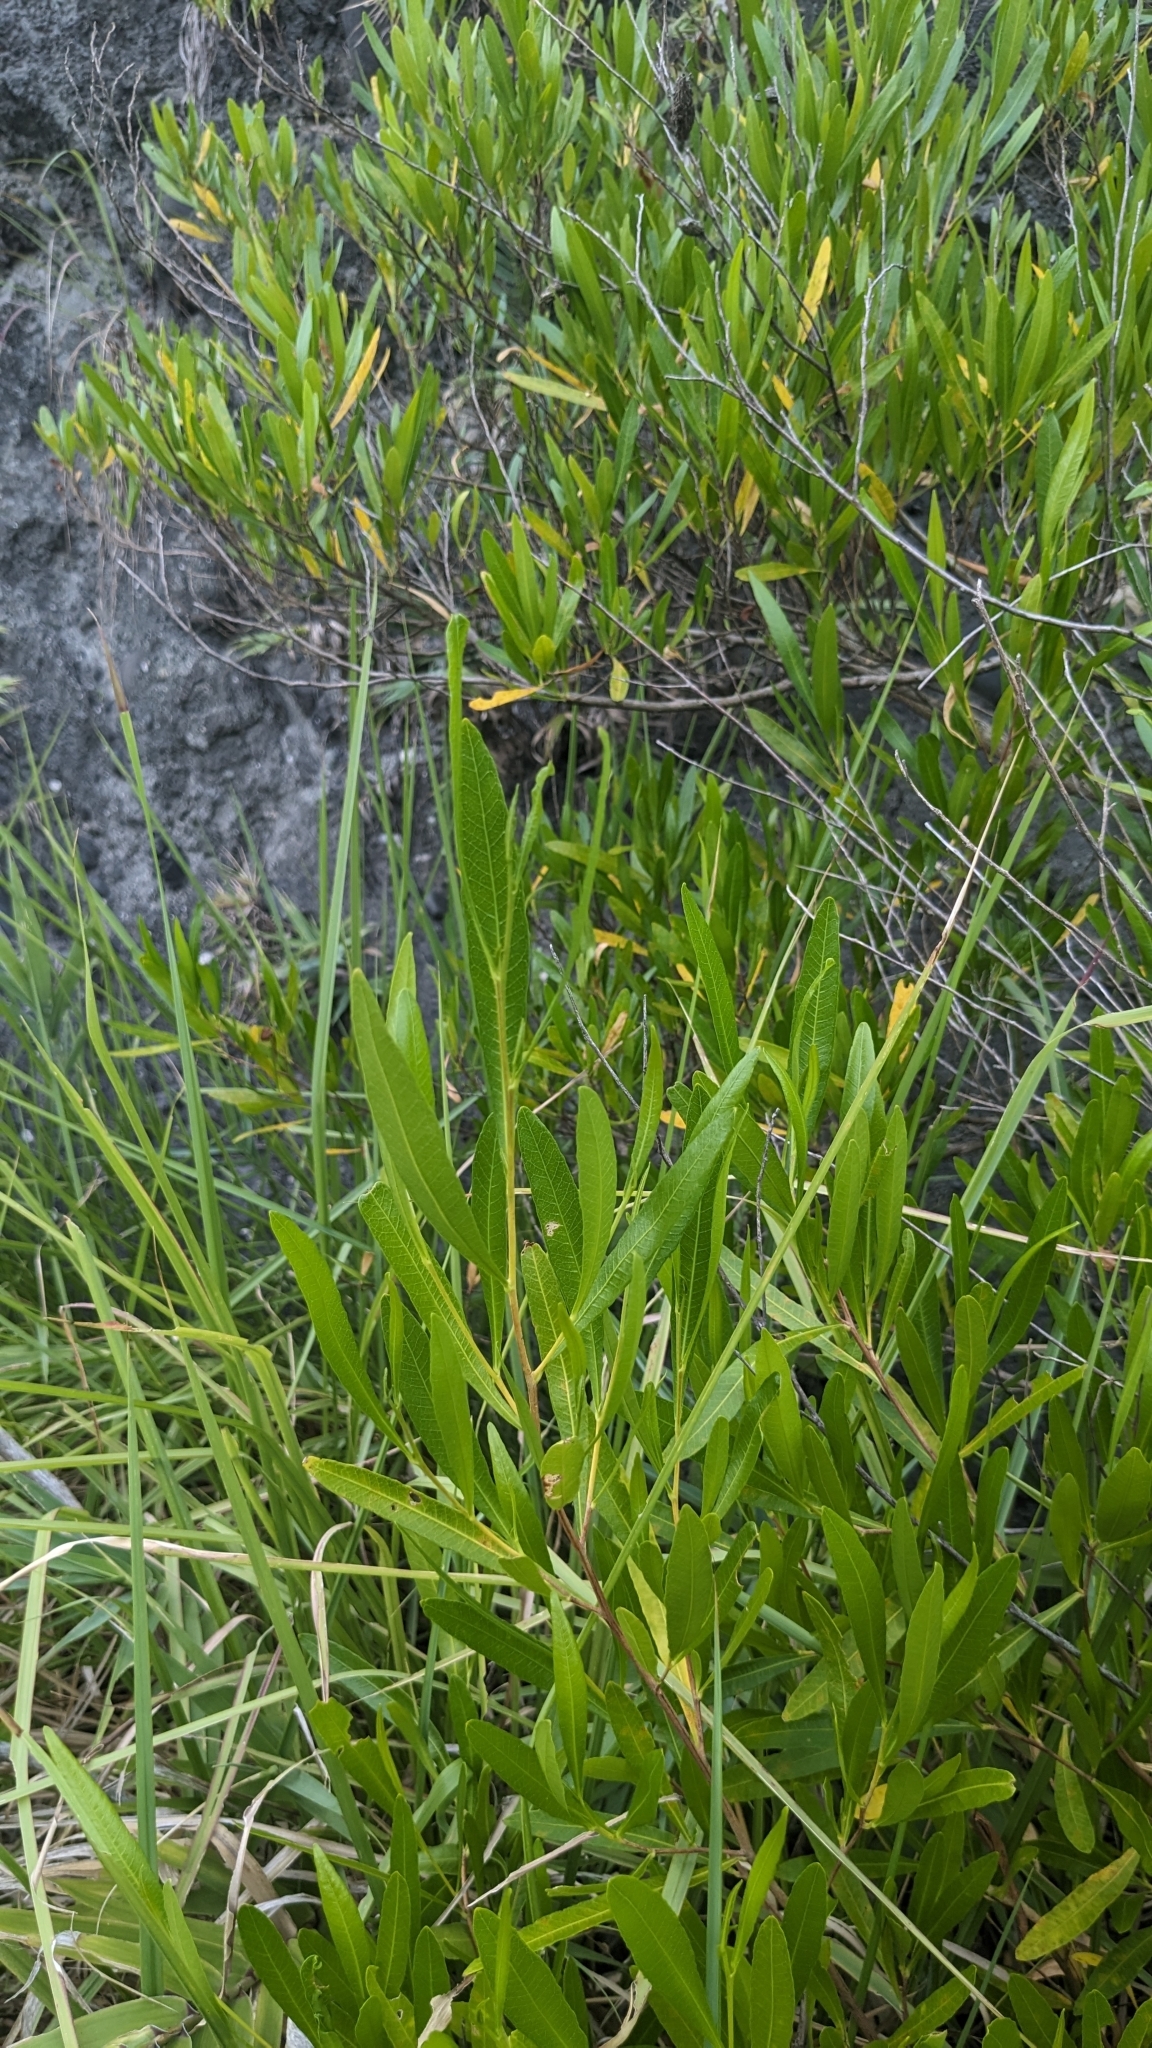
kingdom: Plantae
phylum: Tracheophyta
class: Magnoliopsida
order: Sapindales
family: Sapindaceae
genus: Dodonaea
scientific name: Dodonaea viscosa
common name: Hopbush
